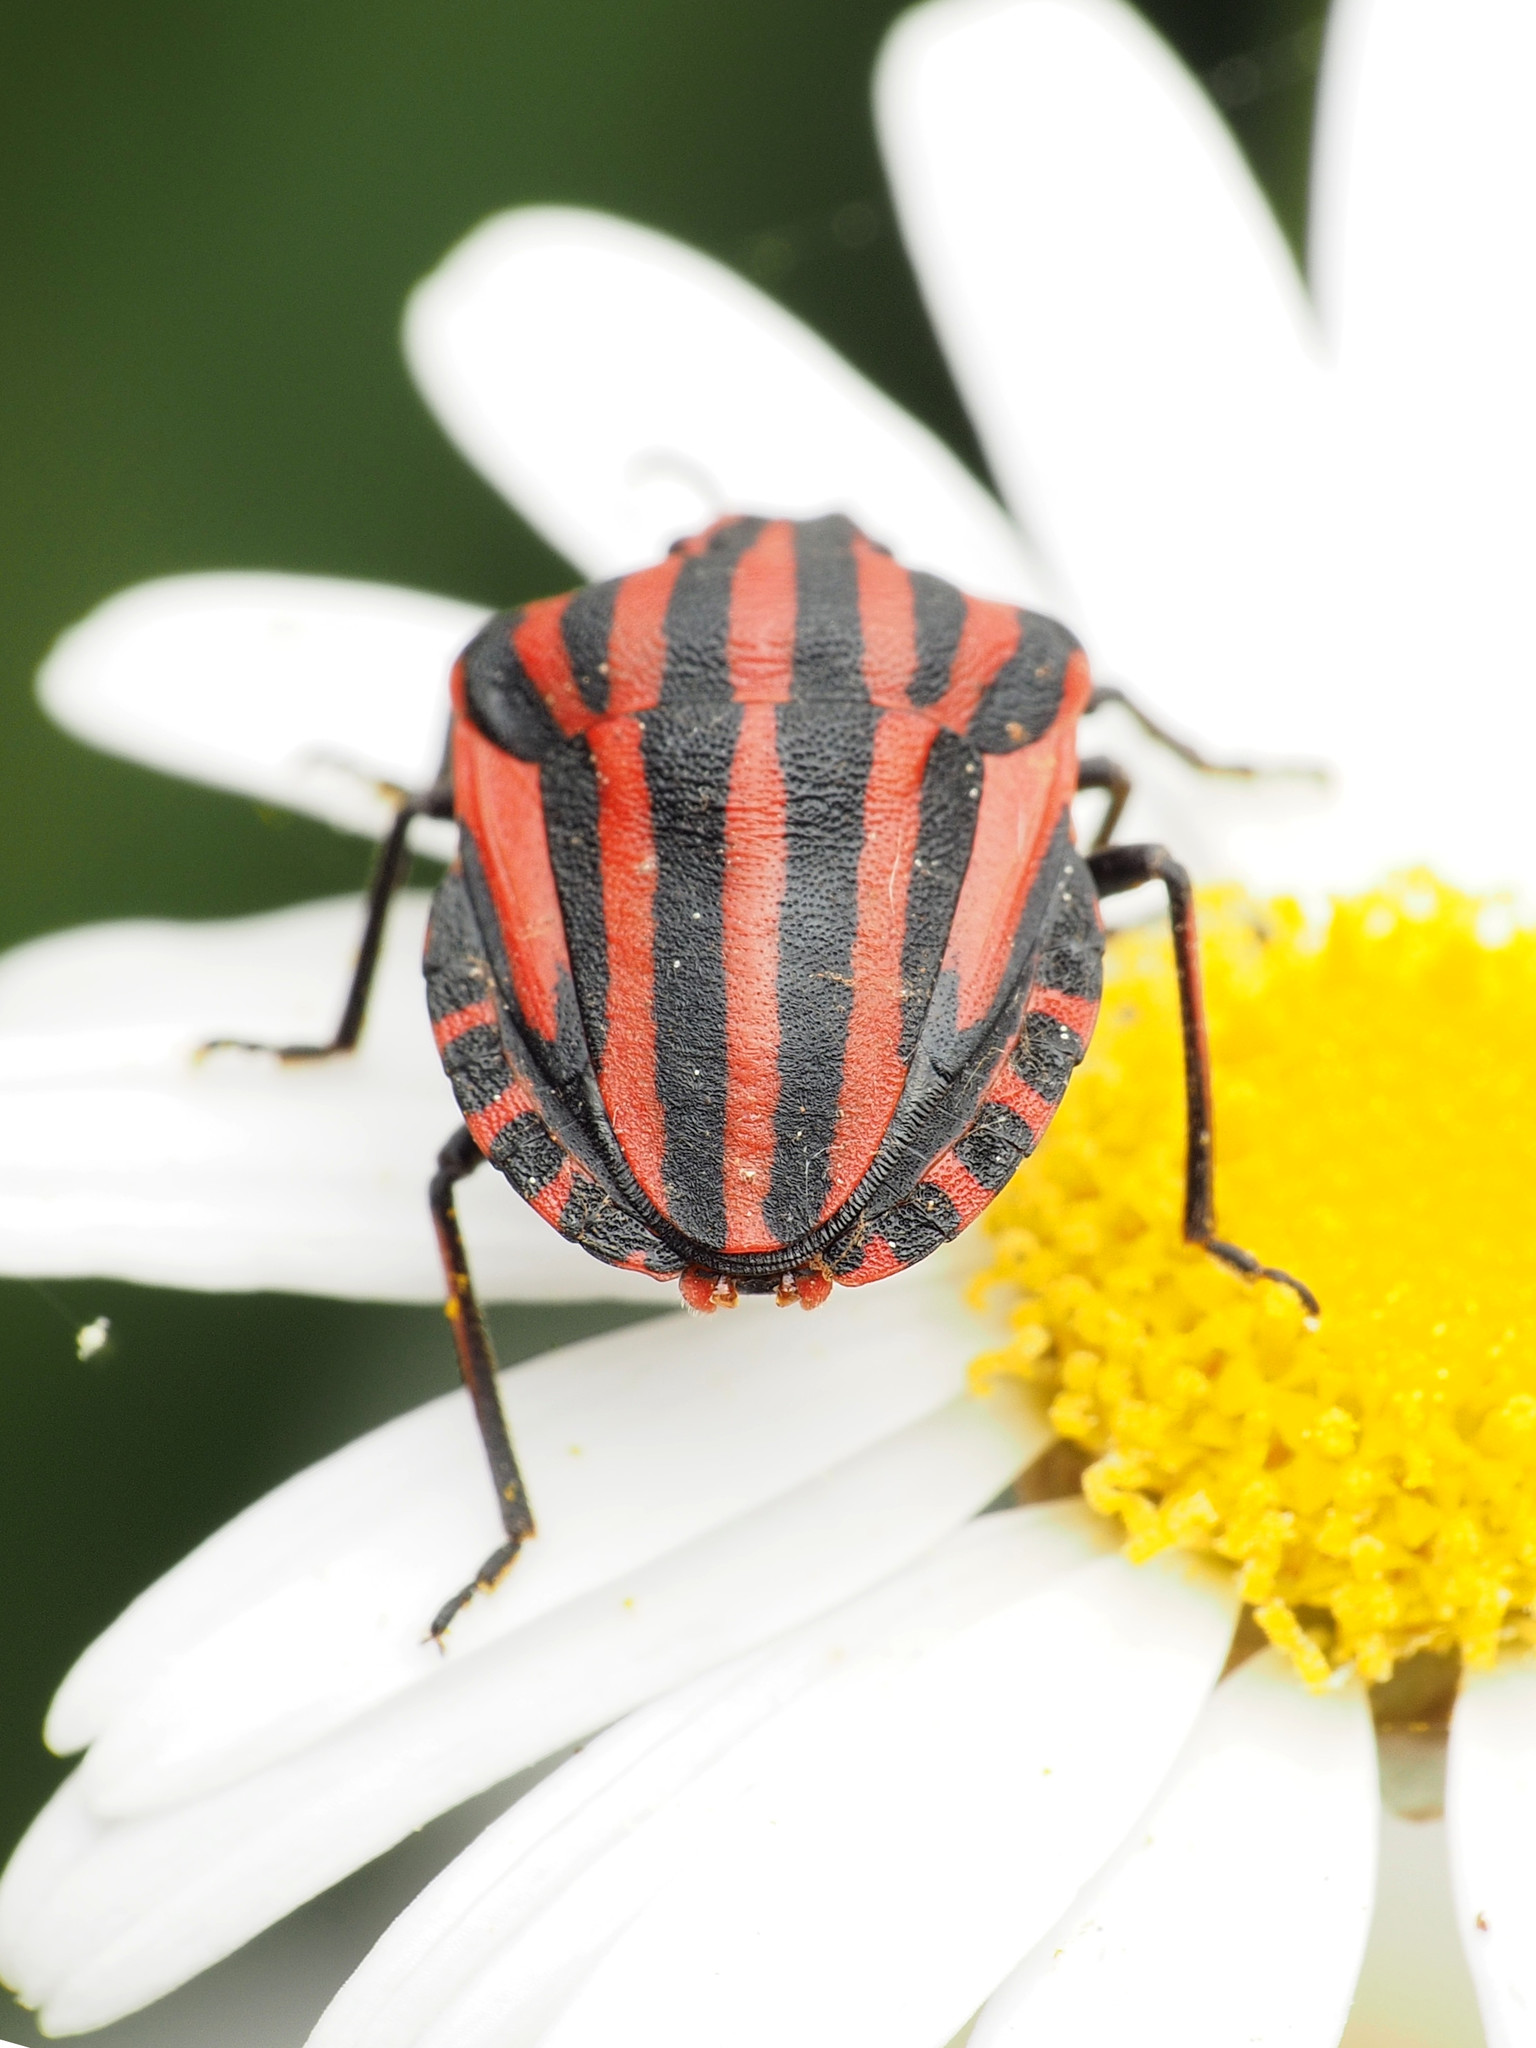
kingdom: Animalia
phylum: Arthropoda
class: Insecta
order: Hemiptera
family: Pentatomidae
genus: Graphosoma
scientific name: Graphosoma italicum
